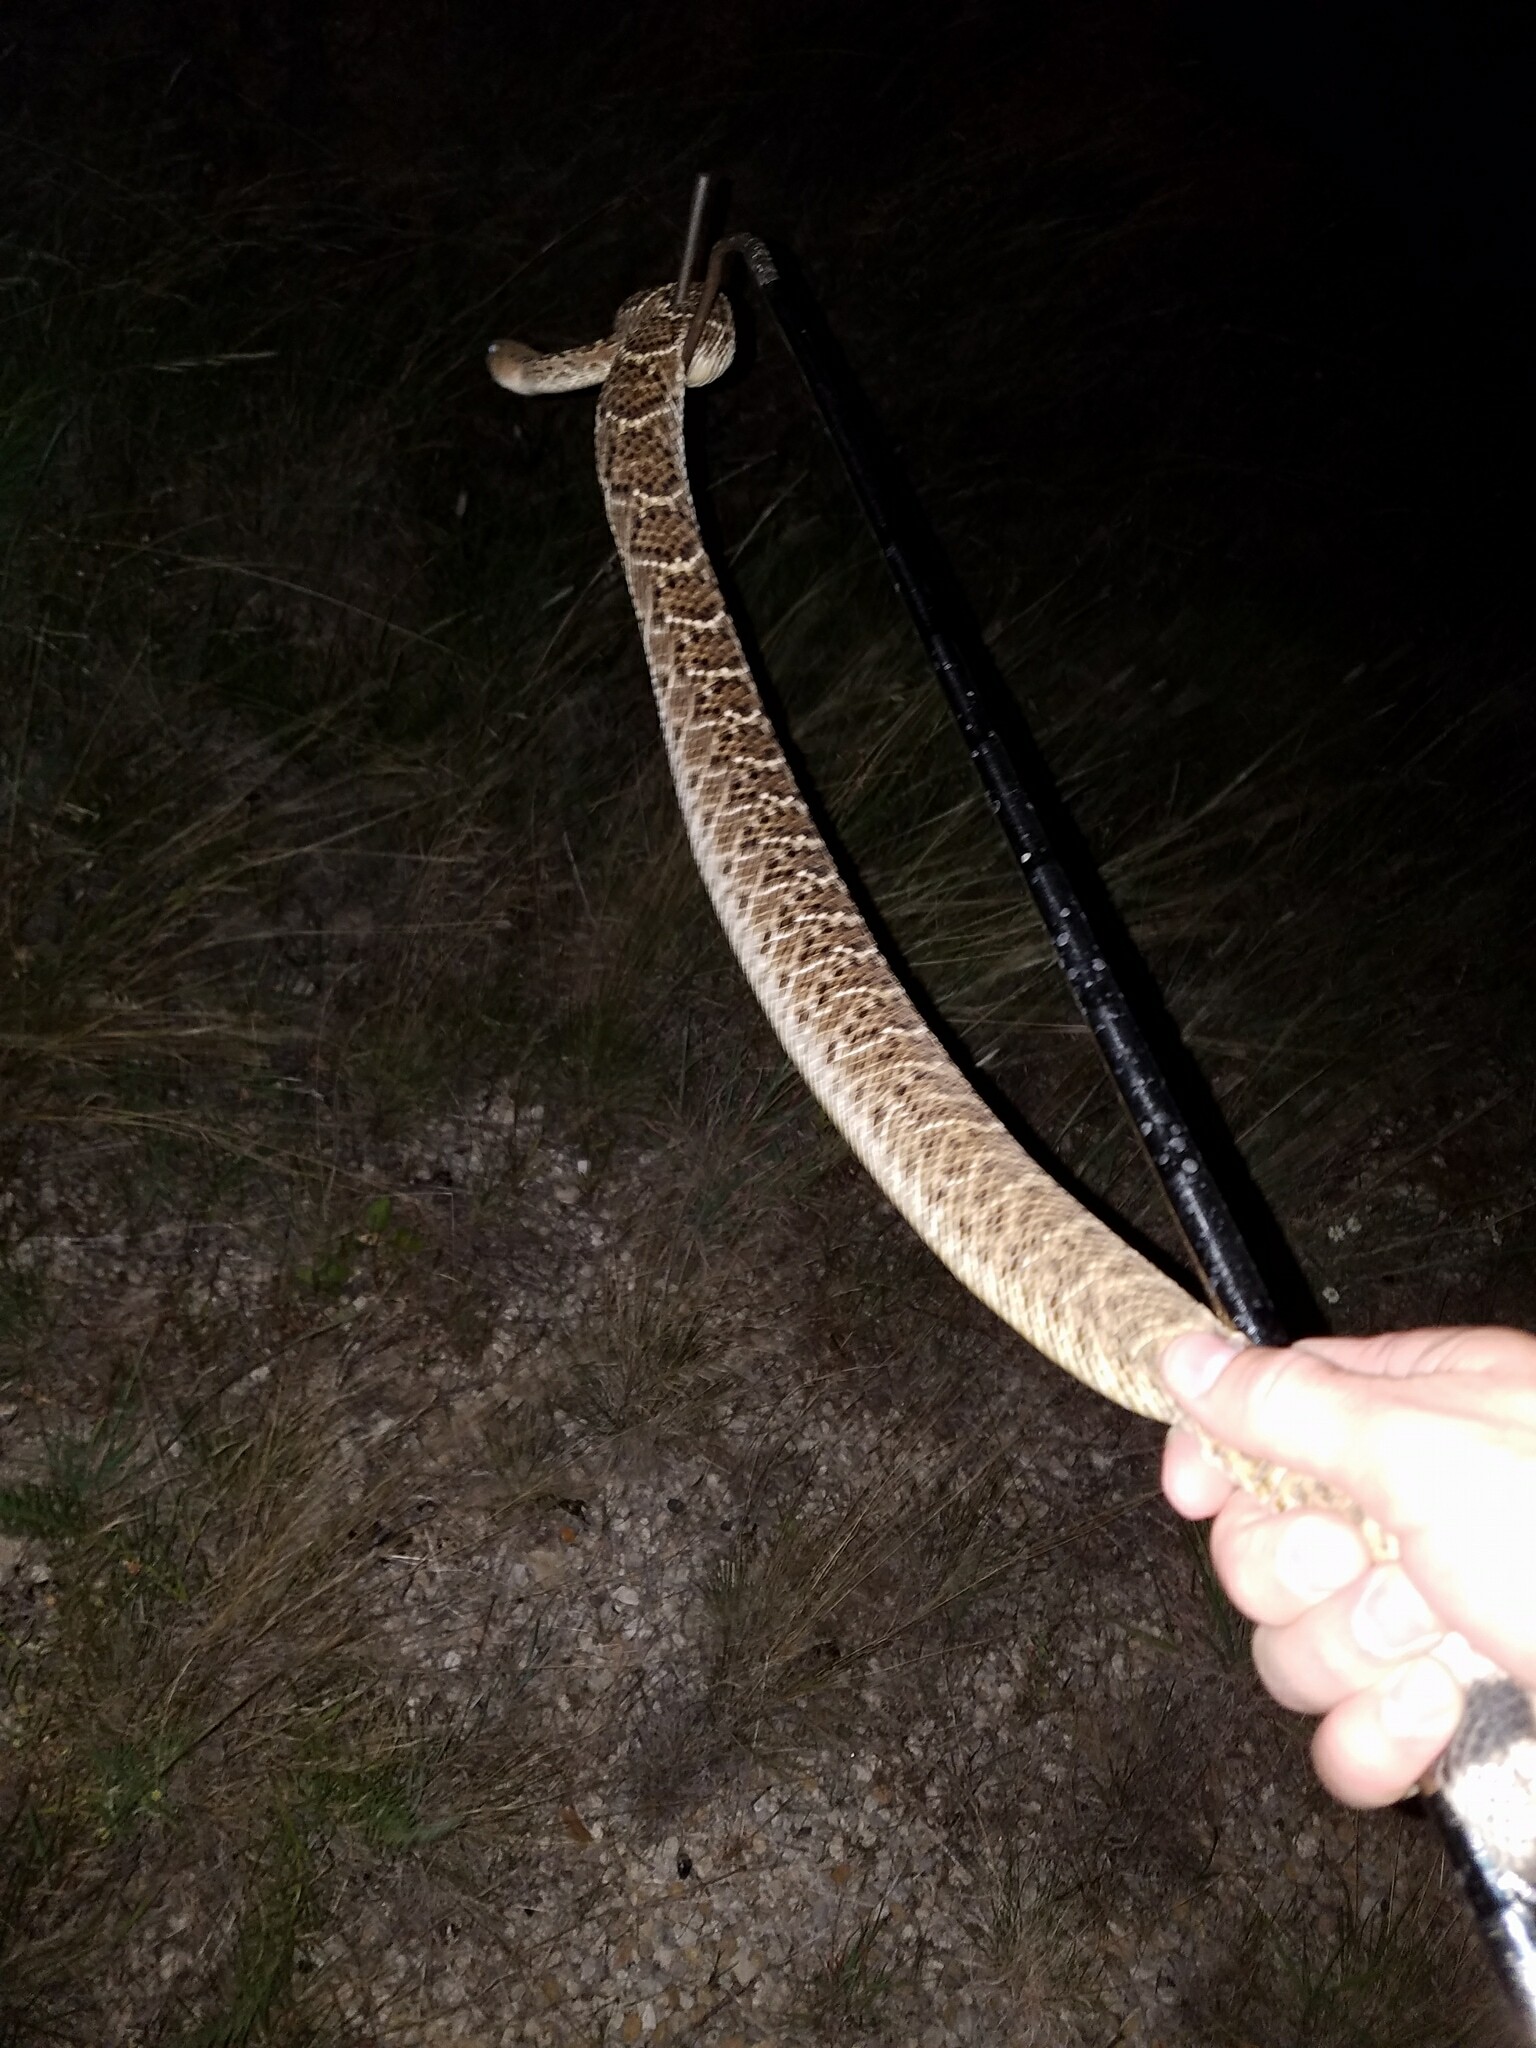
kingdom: Animalia
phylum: Chordata
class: Squamata
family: Viperidae
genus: Crotalus
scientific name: Crotalus atrox
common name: Western diamond-backed rattlesnake
